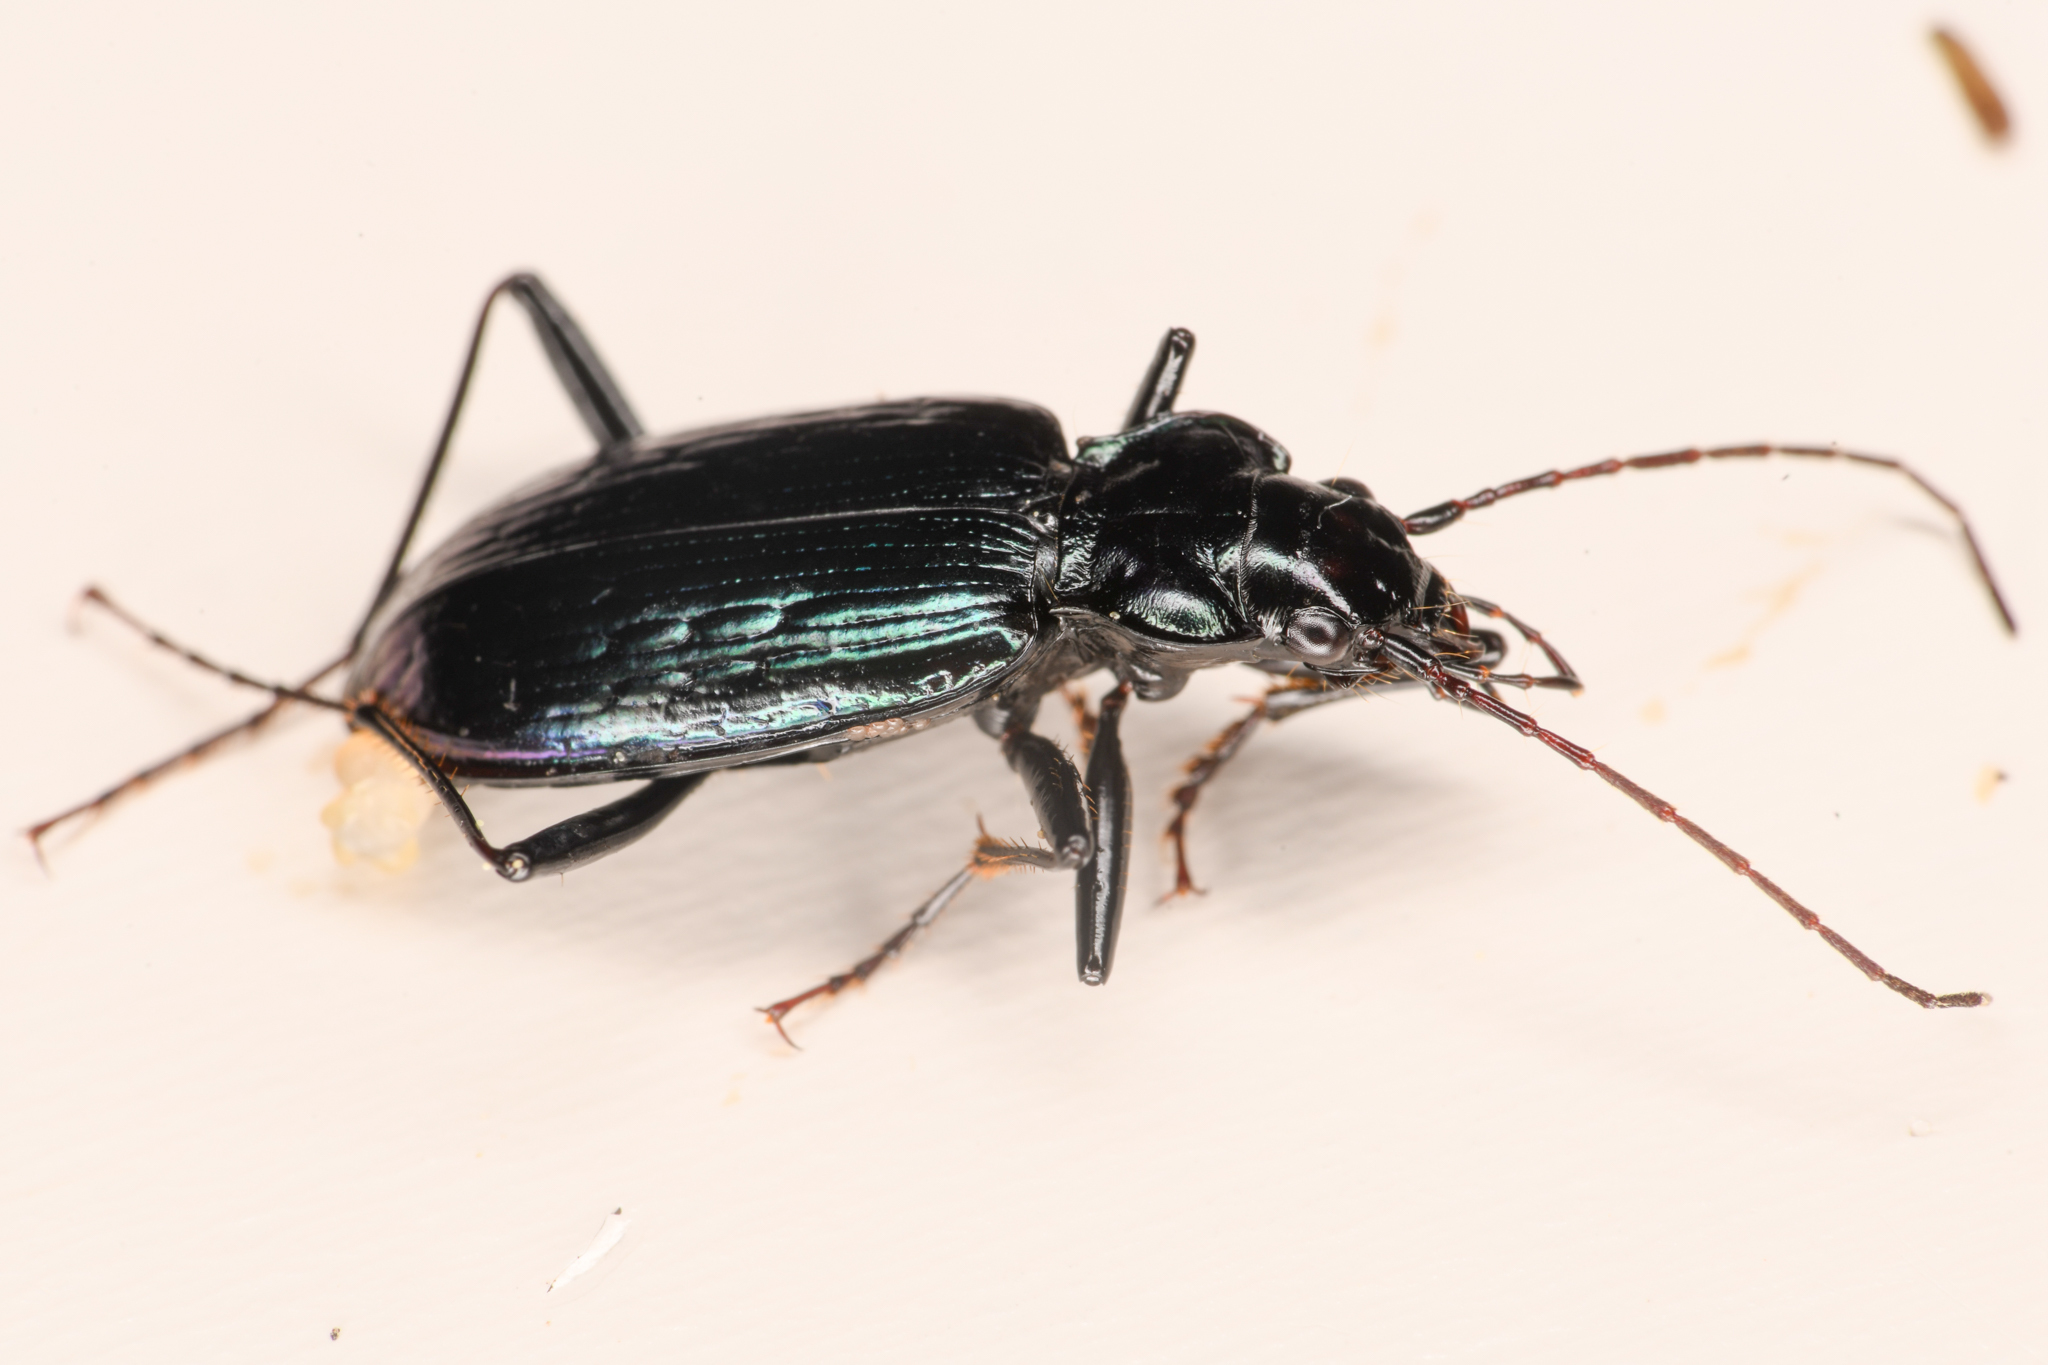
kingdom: Animalia
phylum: Arthropoda
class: Insecta
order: Coleoptera
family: Carabidae
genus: Nebria
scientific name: Nebria schwarzi
